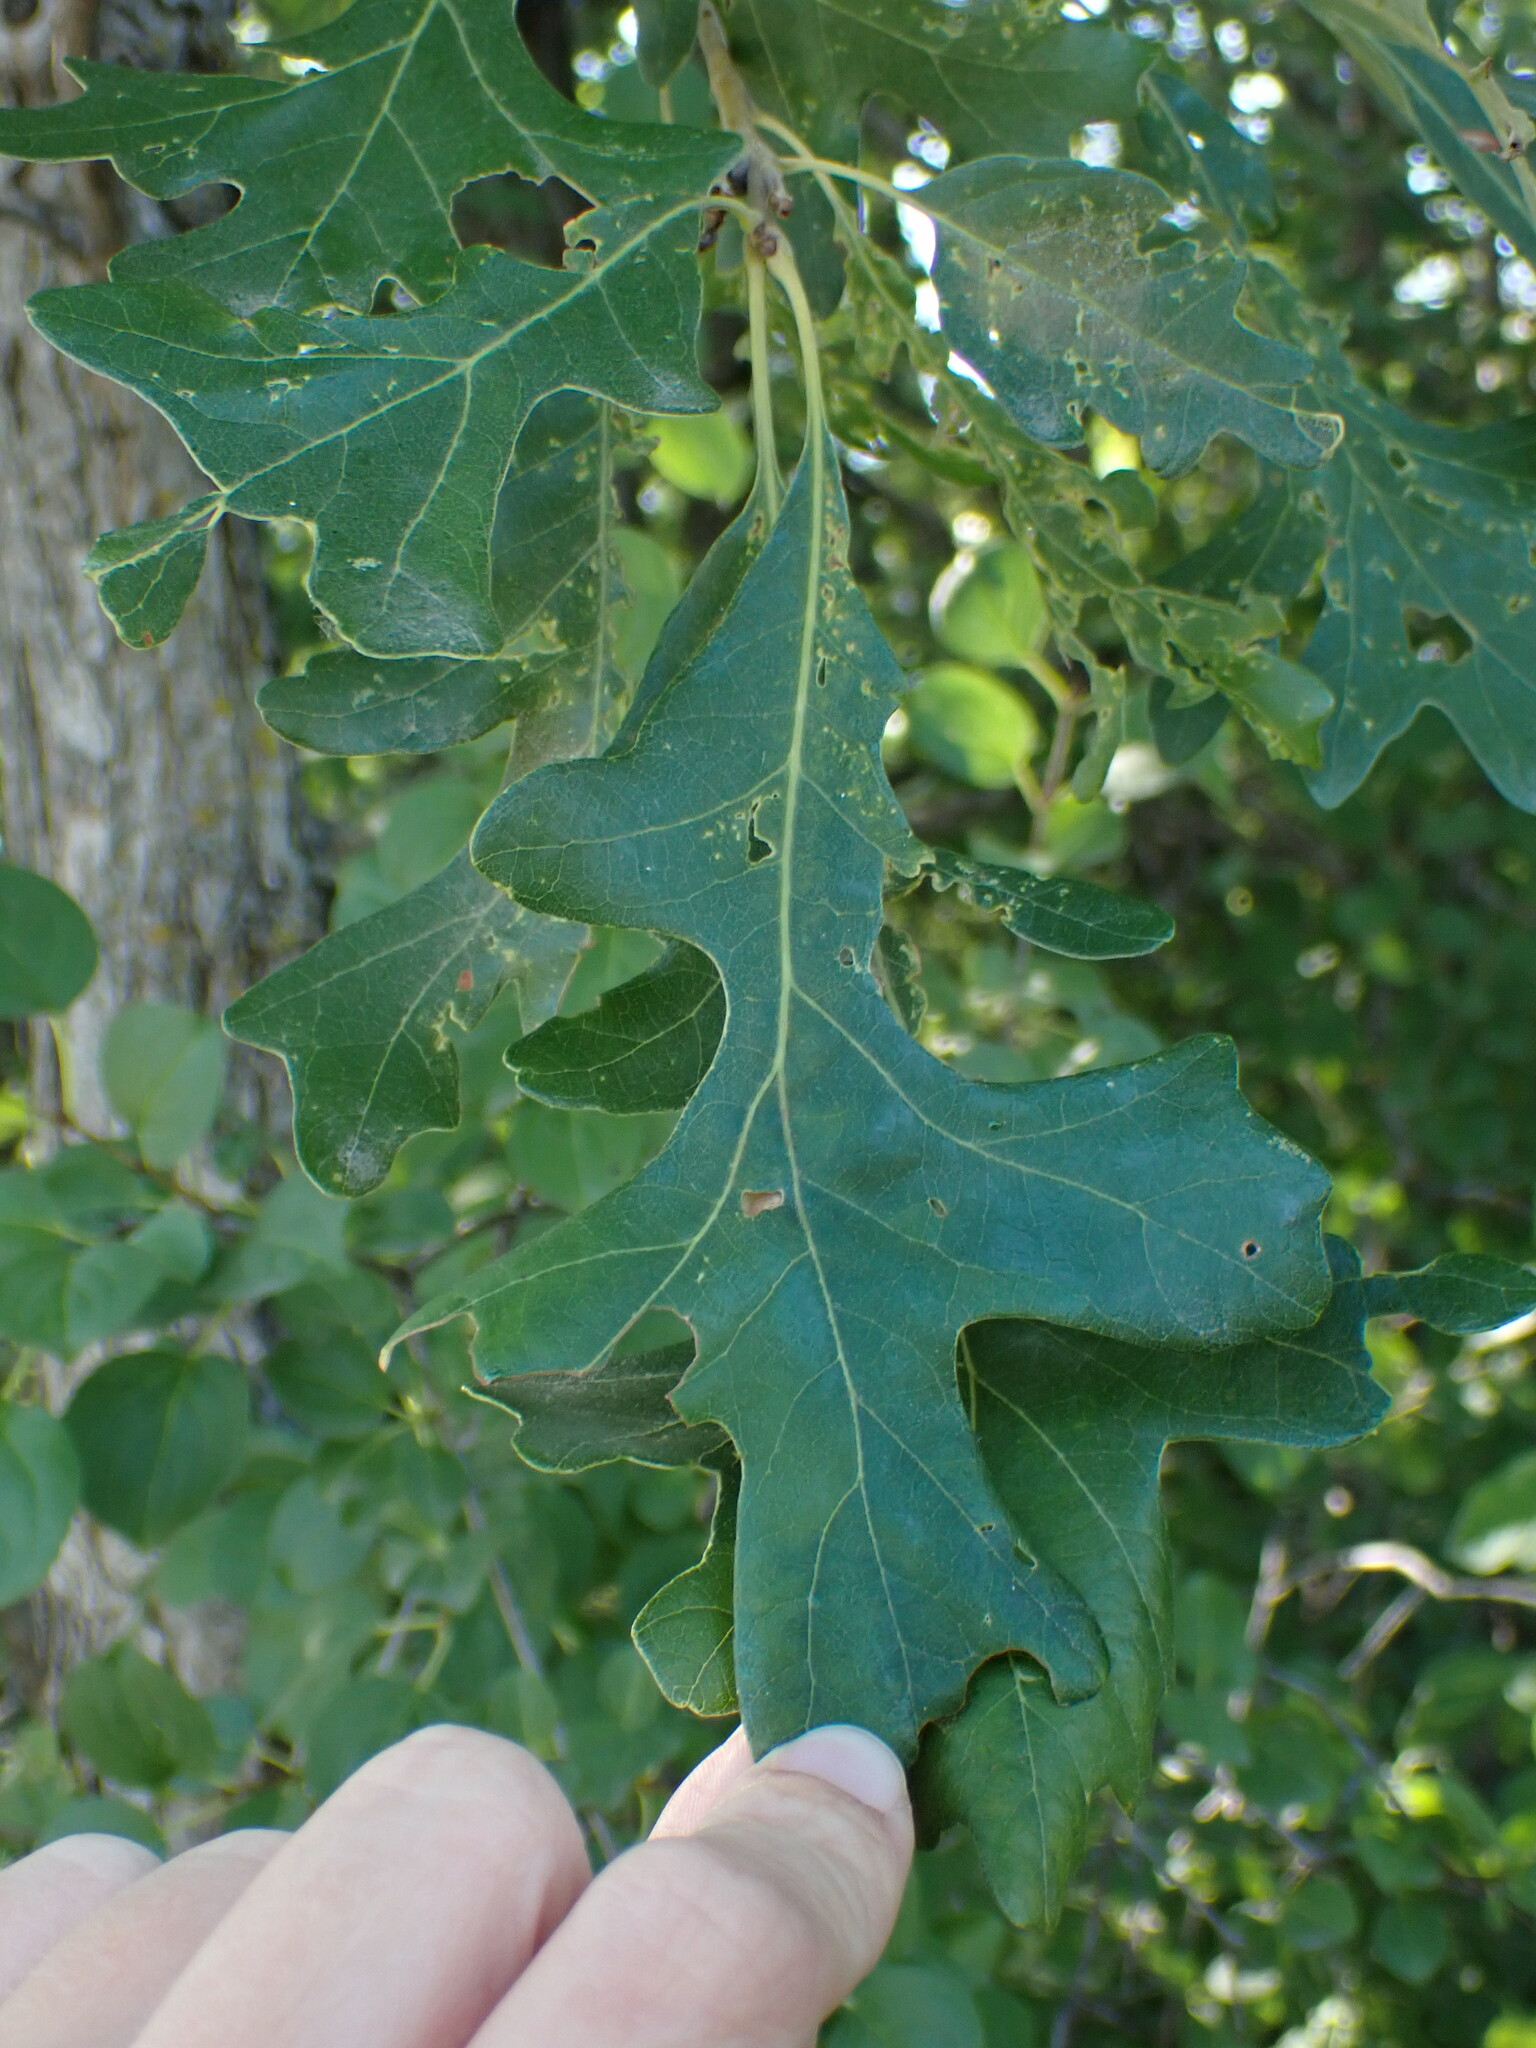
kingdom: Plantae
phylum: Tracheophyta
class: Magnoliopsida
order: Fagales
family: Fagaceae
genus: Quercus
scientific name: Quercus macrocarpa
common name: Bur oak
